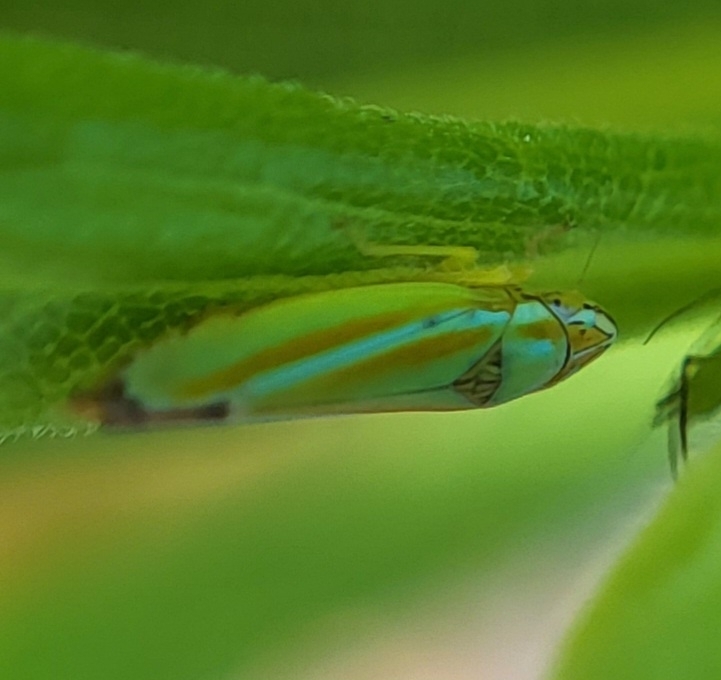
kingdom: Animalia
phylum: Arthropoda
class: Insecta
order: Hemiptera
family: Cicadellidae
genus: Graphocephala
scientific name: Graphocephala versuta
